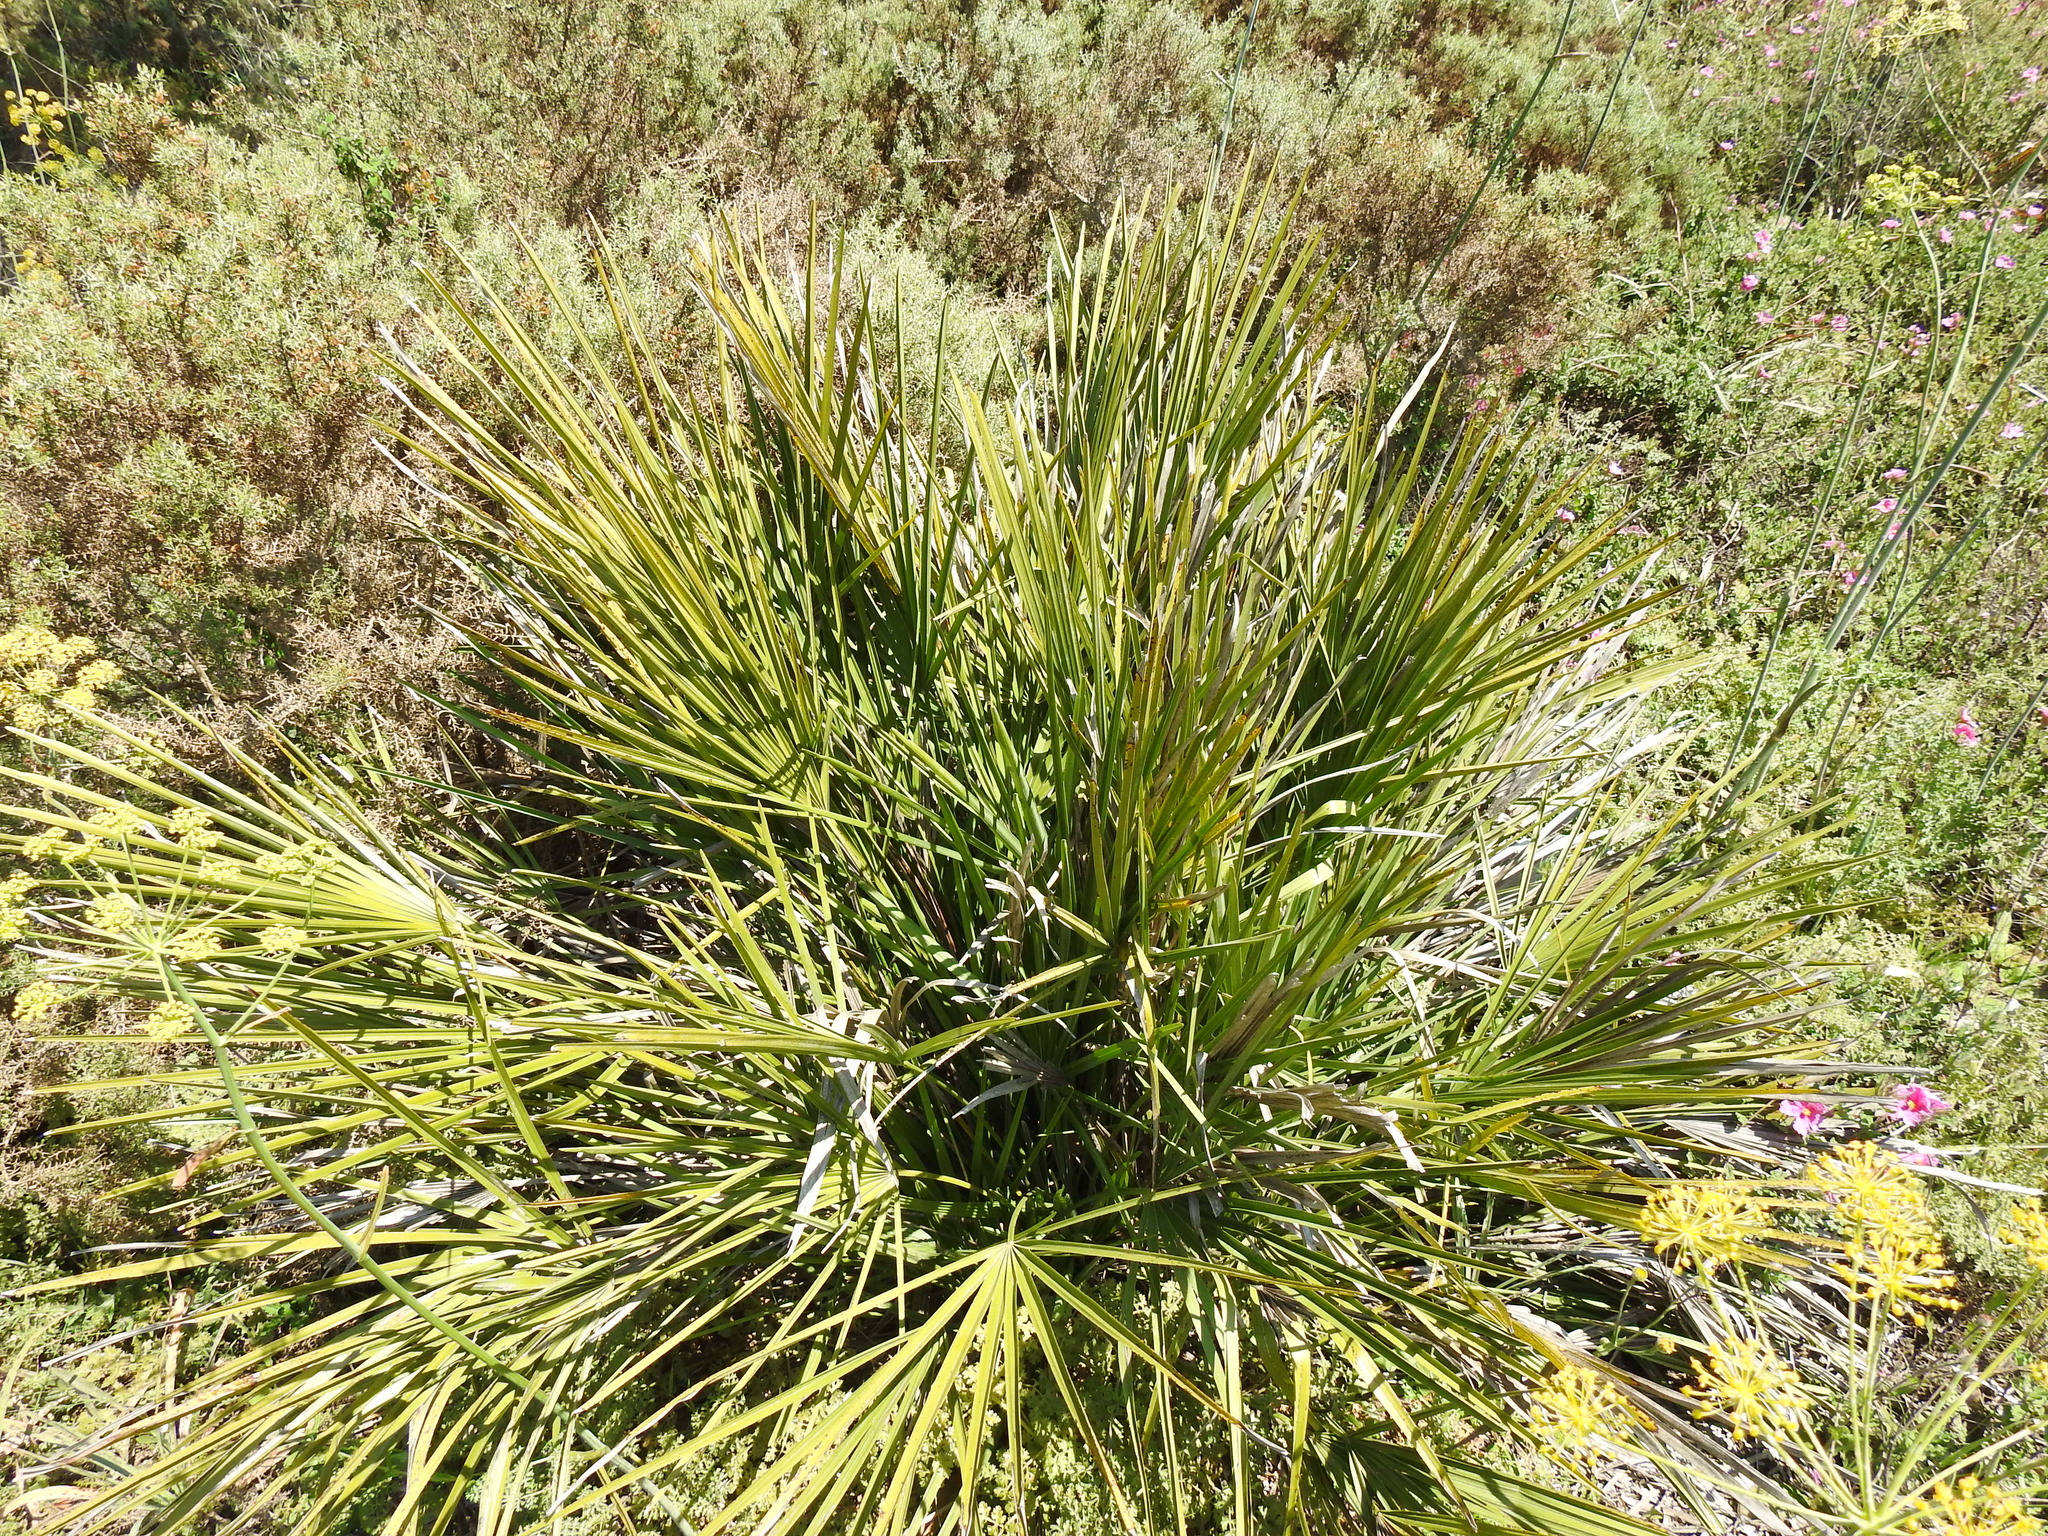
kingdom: Plantae
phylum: Tracheophyta
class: Liliopsida
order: Arecales
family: Arecaceae
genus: Chamaerops
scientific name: Chamaerops humilis
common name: Dwarf fan palm
